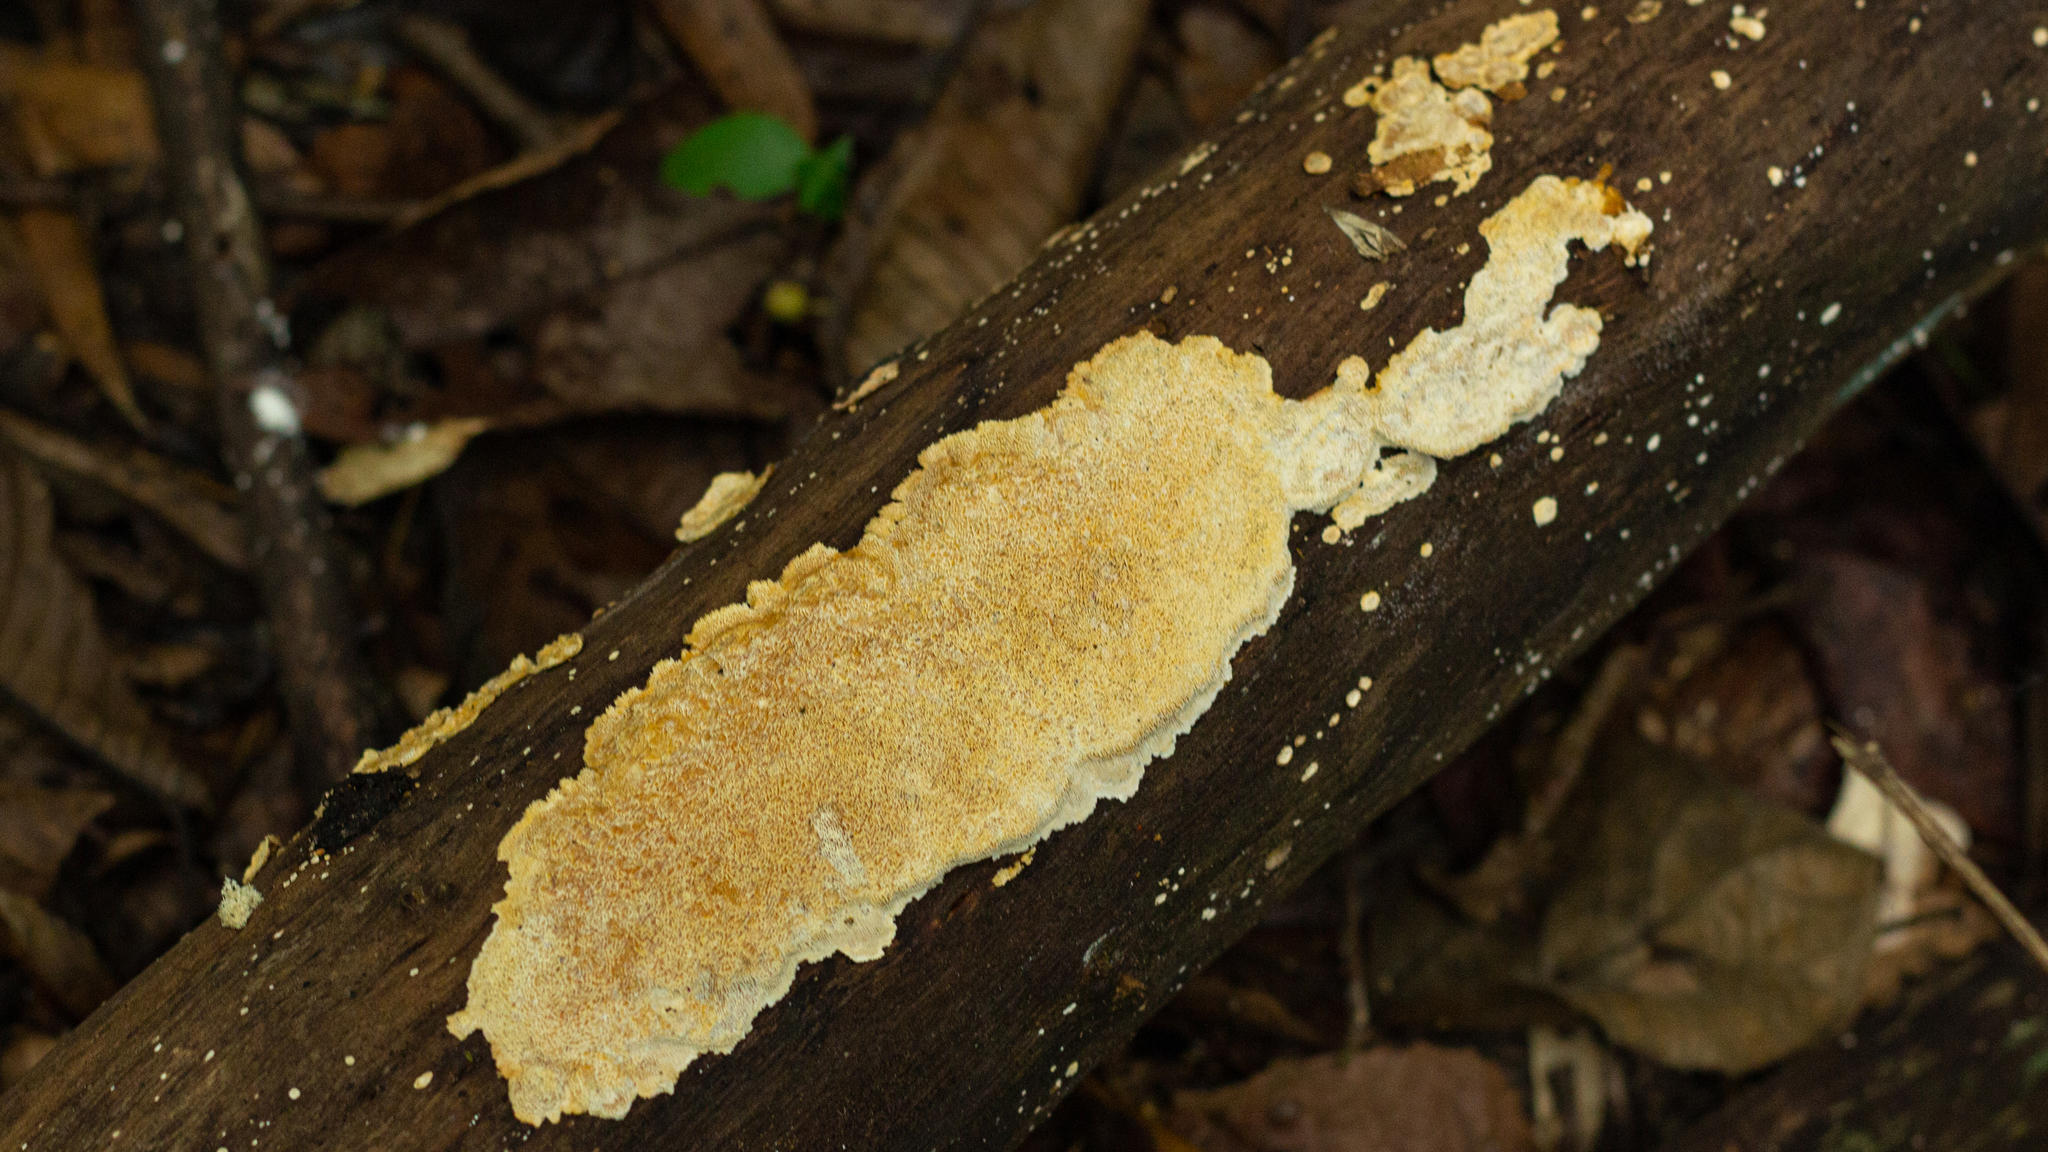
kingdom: Fungi
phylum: Basidiomycota
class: Agaricomycetes
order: Polyporales
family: Polyporaceae
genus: Pachykytospora
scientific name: Pachykytospora papyracea
